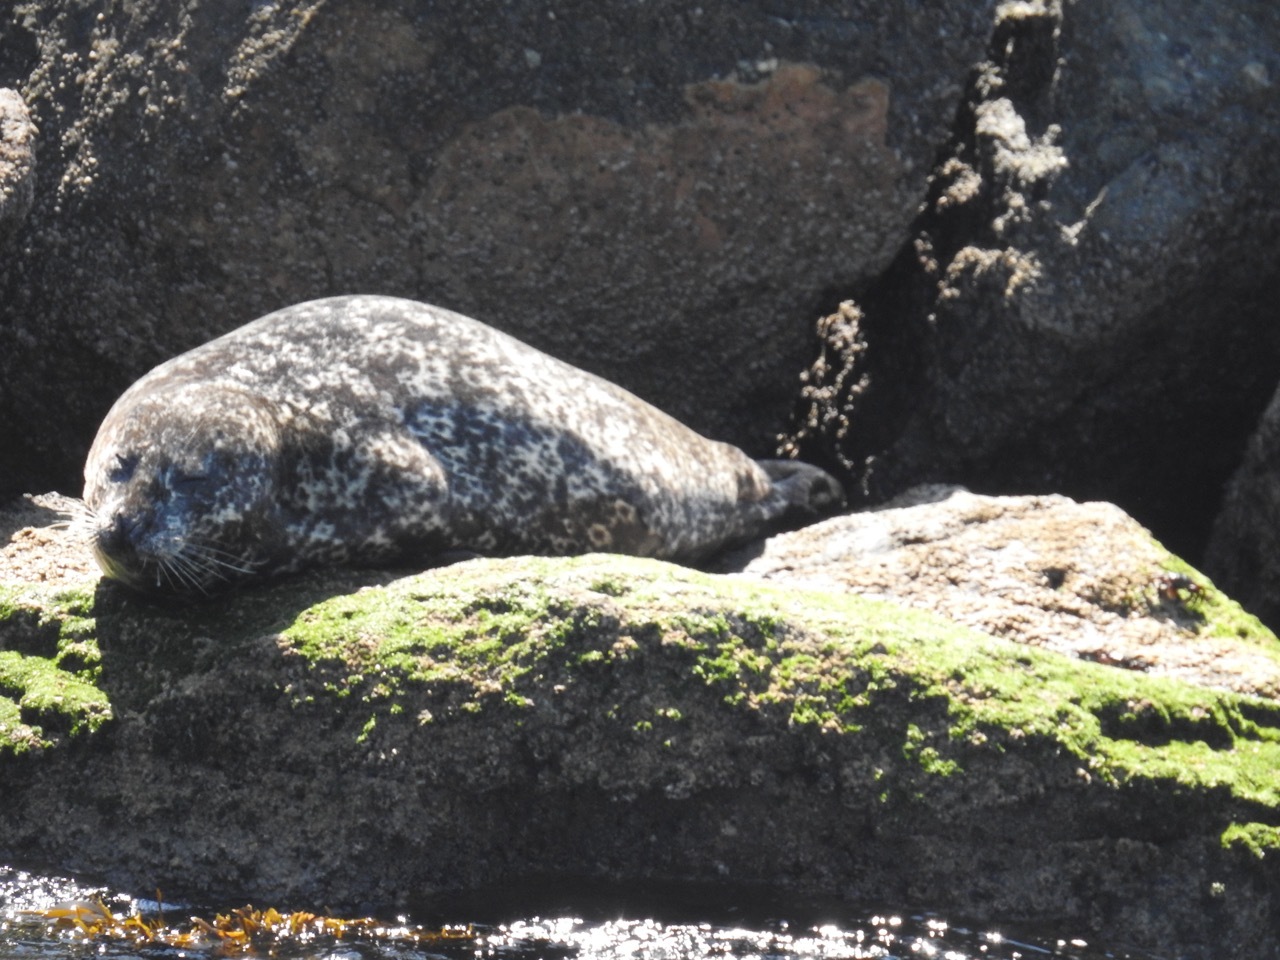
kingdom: Animalia
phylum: Chordata
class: Mammalia
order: Carnivora
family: Phocidae
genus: Phoca
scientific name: Phoca vitulina
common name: Harbor seal
